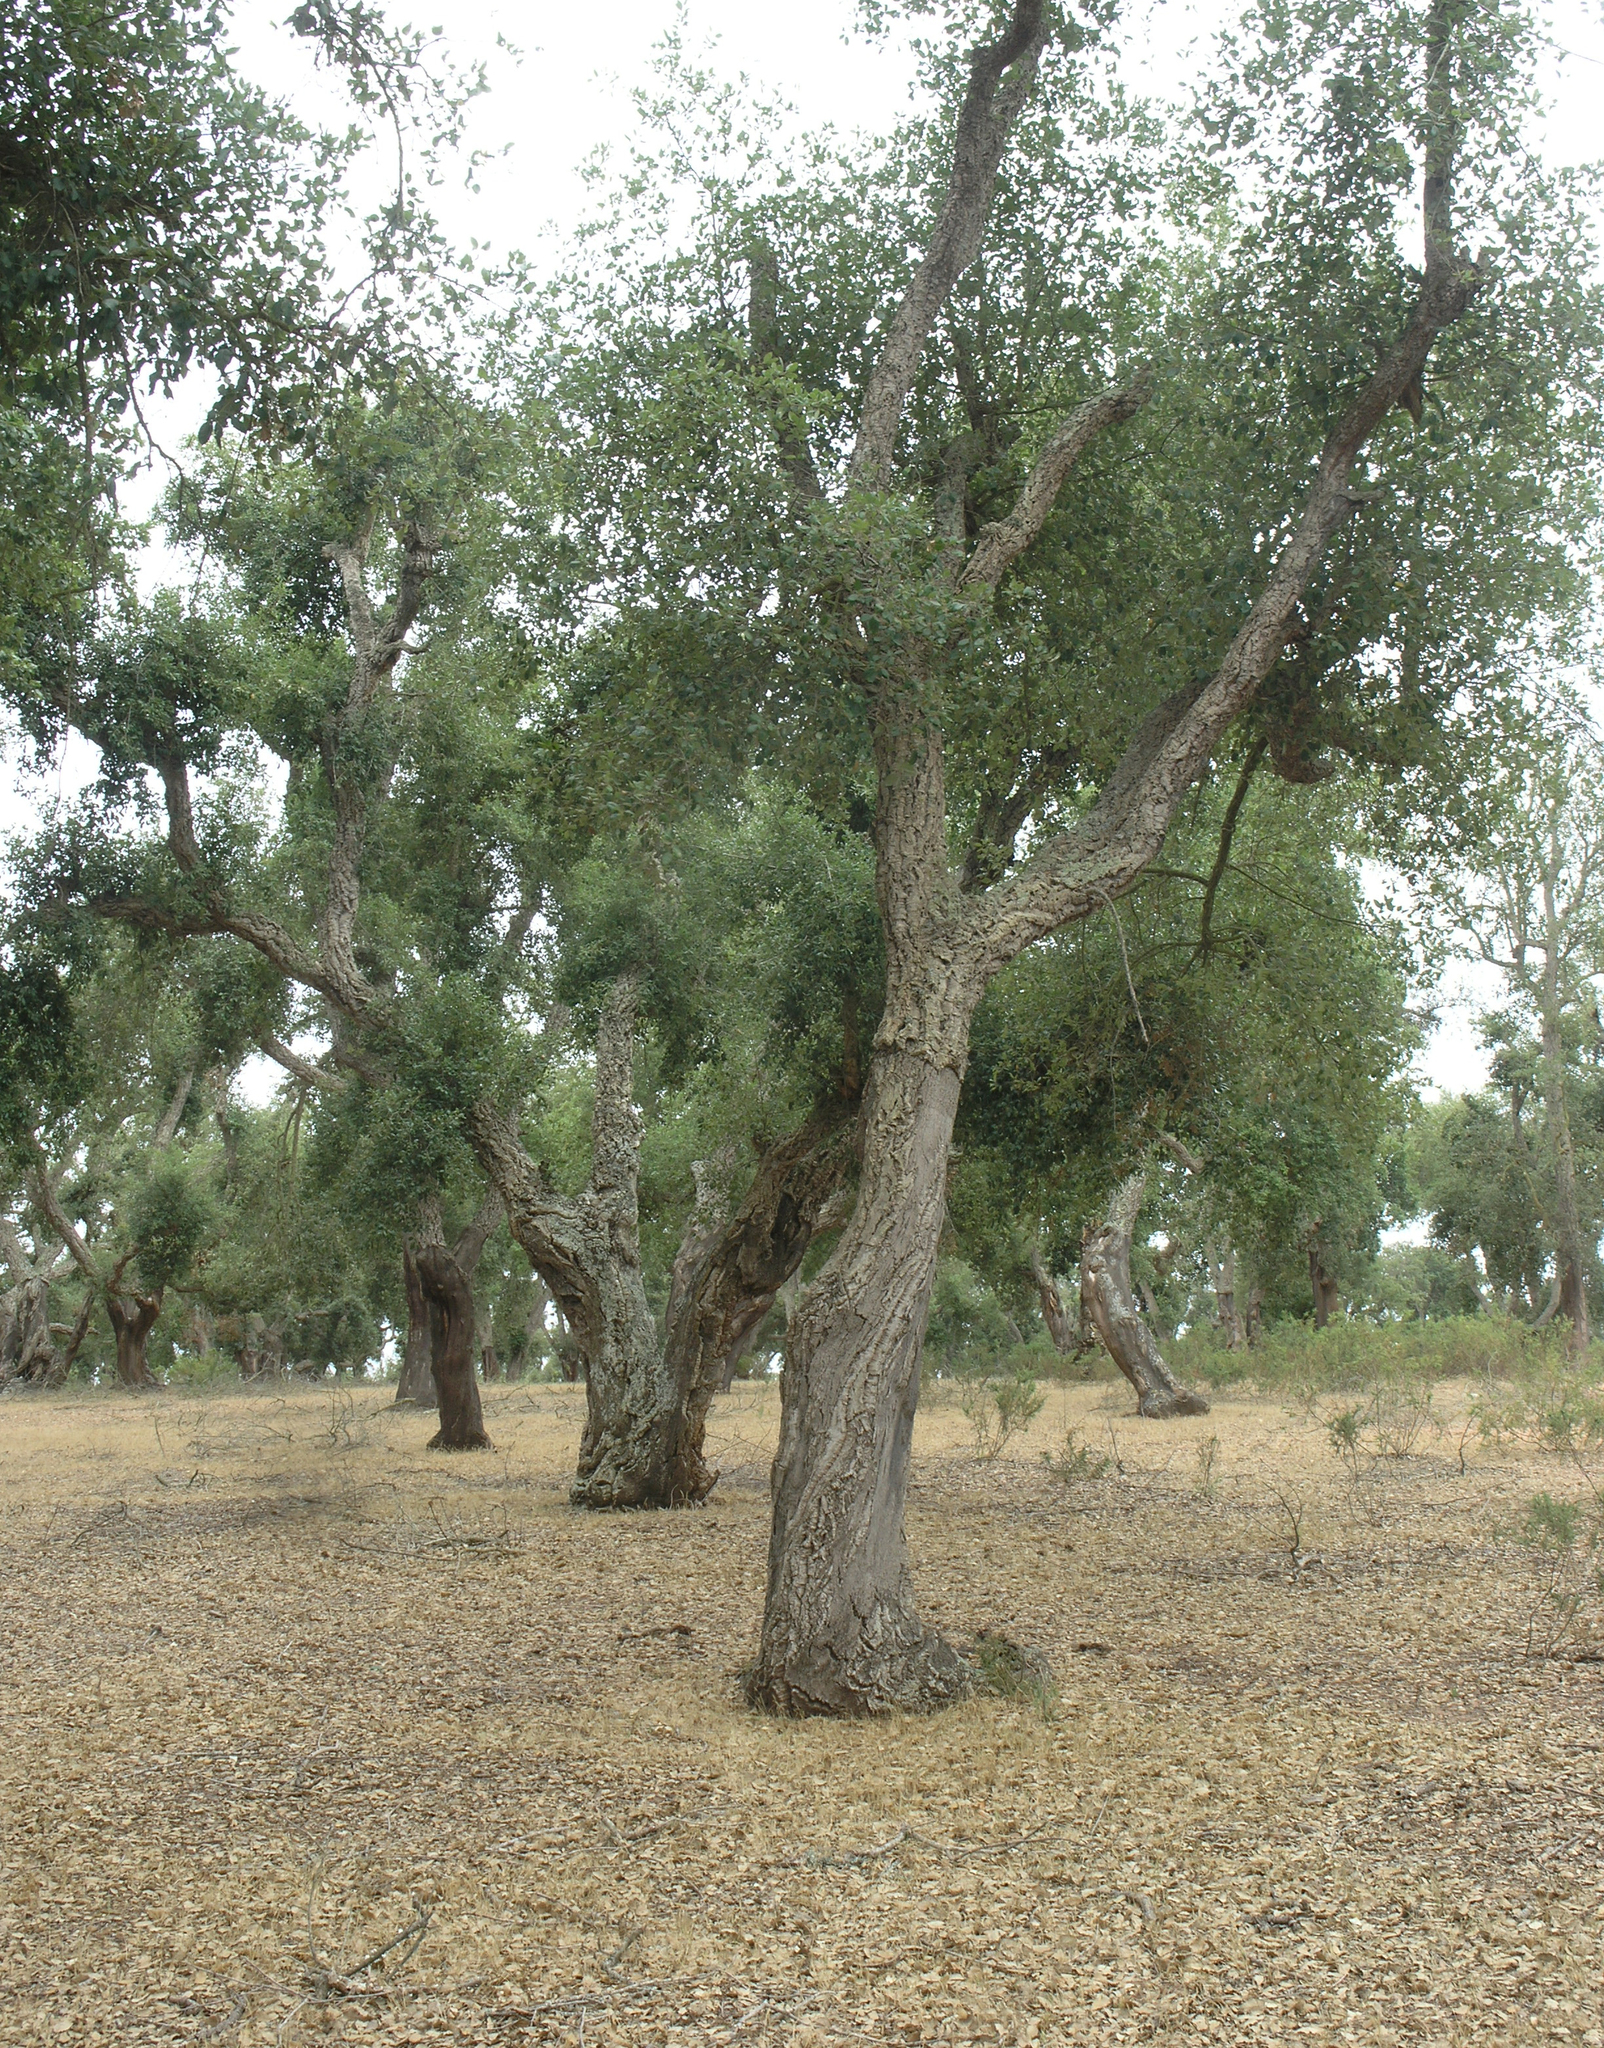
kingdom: Plantae
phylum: Tracheophyta
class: Magnoliopsida
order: Fagales
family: Fagaceae
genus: Quercus
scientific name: Quercus suber
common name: Cork oak
